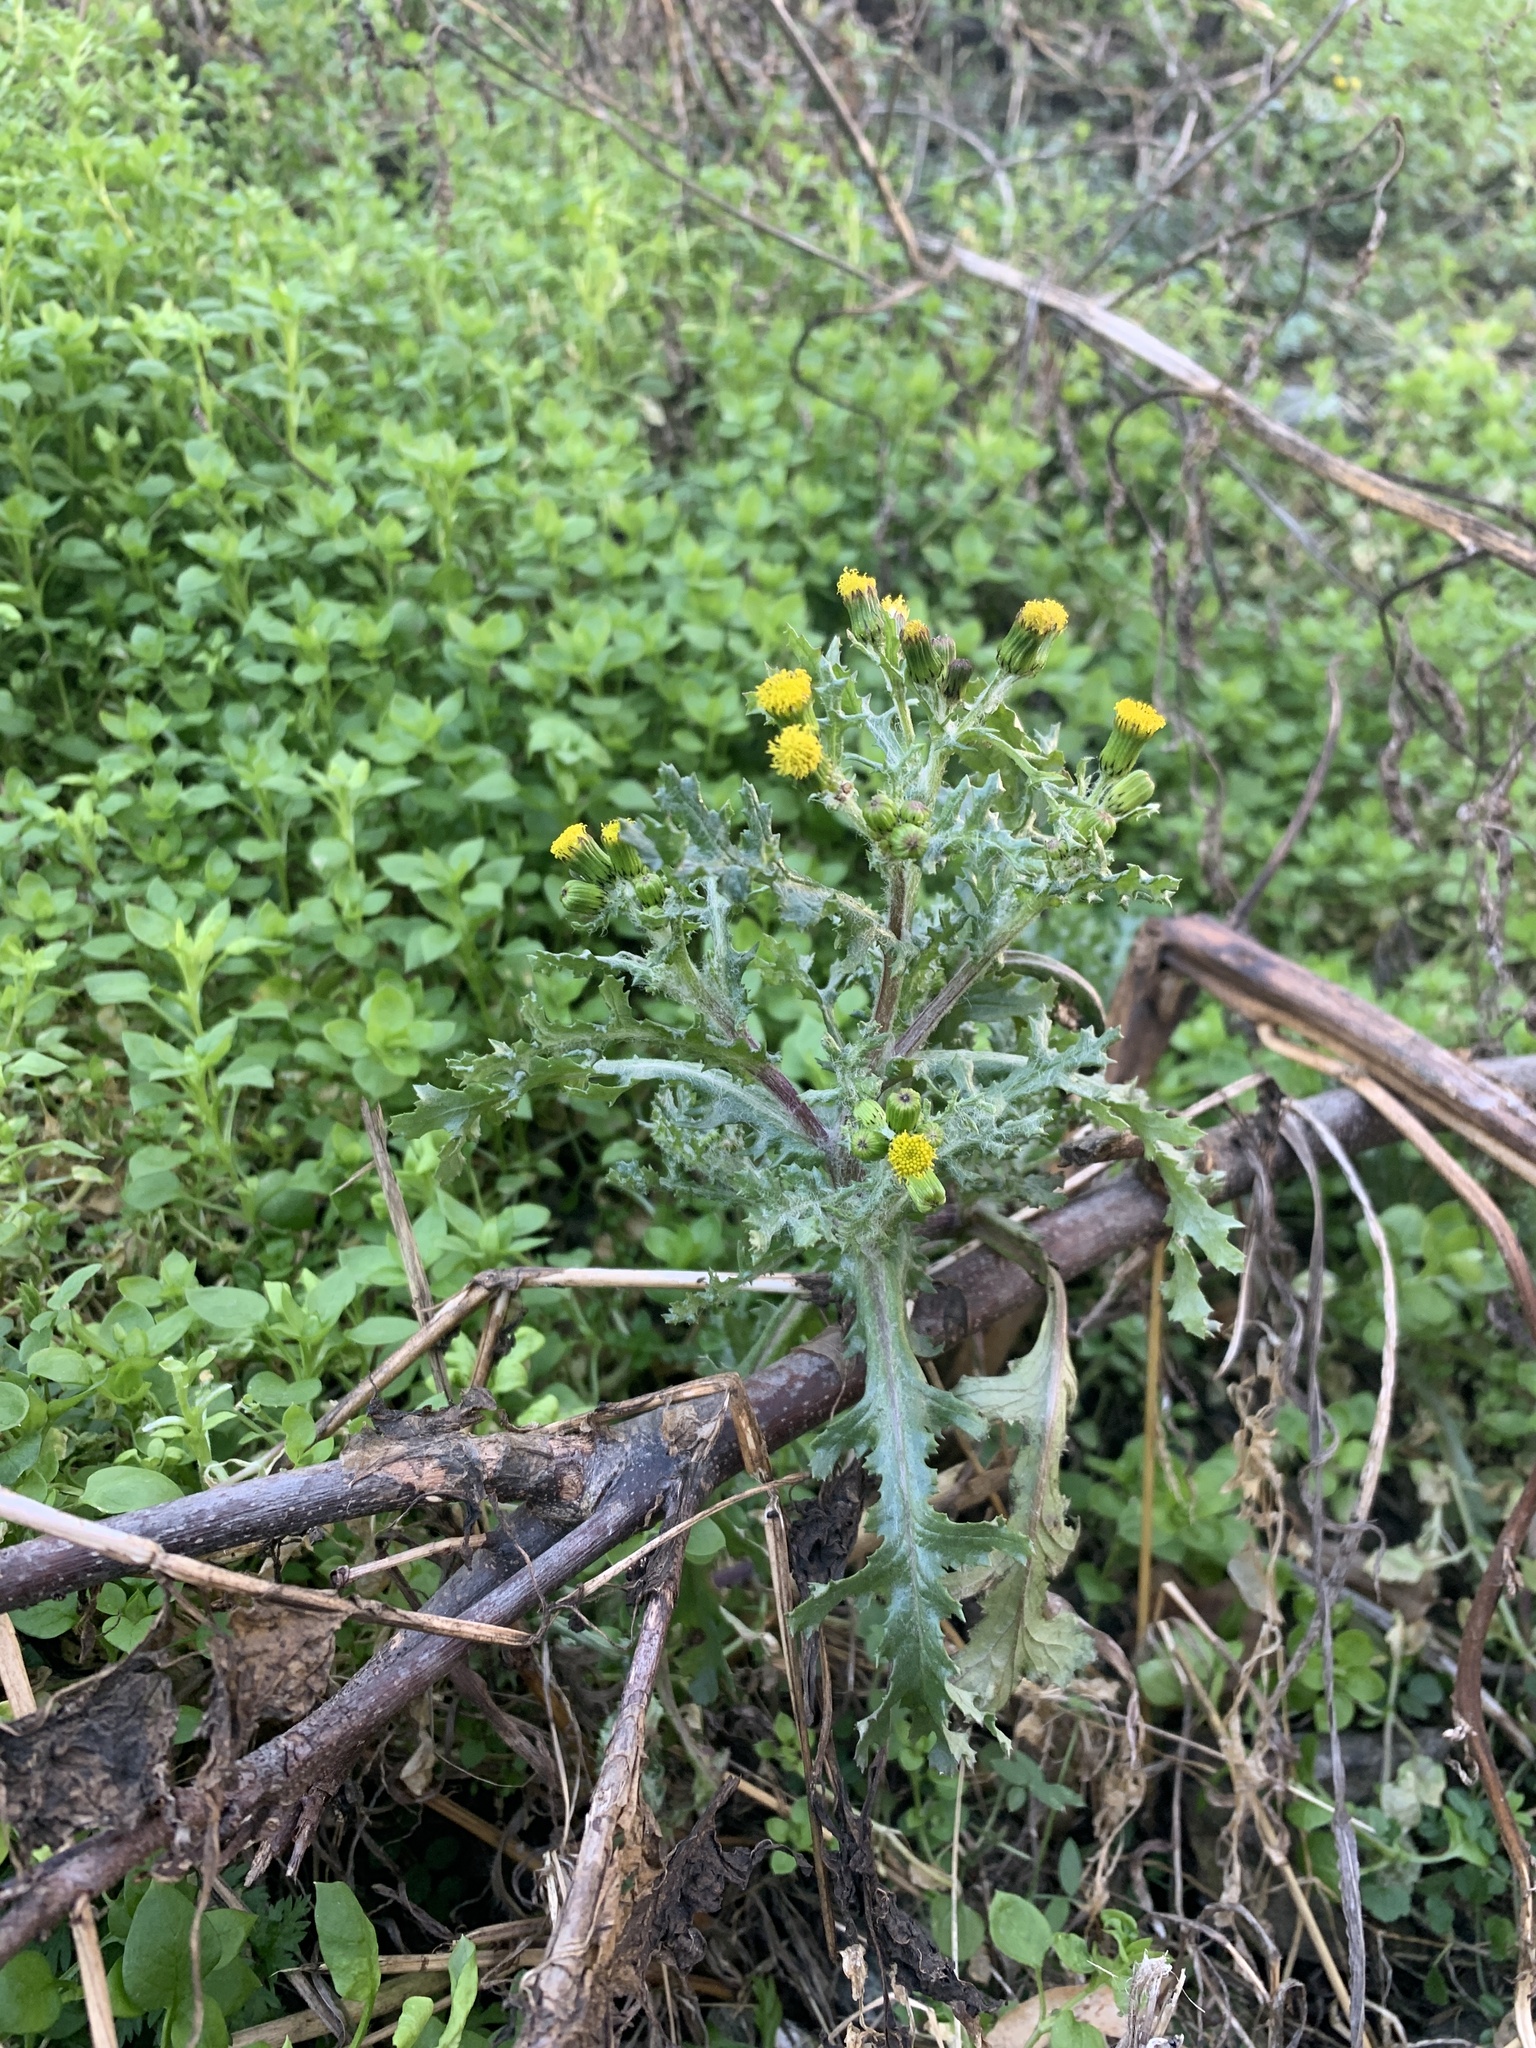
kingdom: Plantae
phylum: Tracheophyta
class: Magnoliopsida
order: Asterales
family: Asteraceae
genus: Senecio
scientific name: Senecio vulgaris
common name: Old-man-in-the-spring
